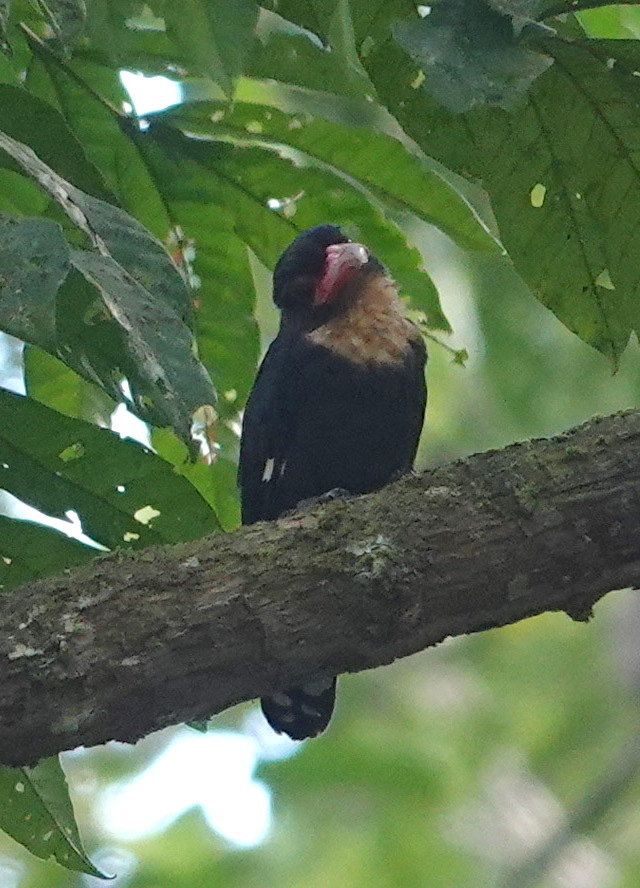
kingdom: Animalia
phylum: Chordata
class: Aves
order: Passeriformes
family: Eurylaimidae
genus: Corydon
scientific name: Corydon sumatranus
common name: Dusky broadbill
